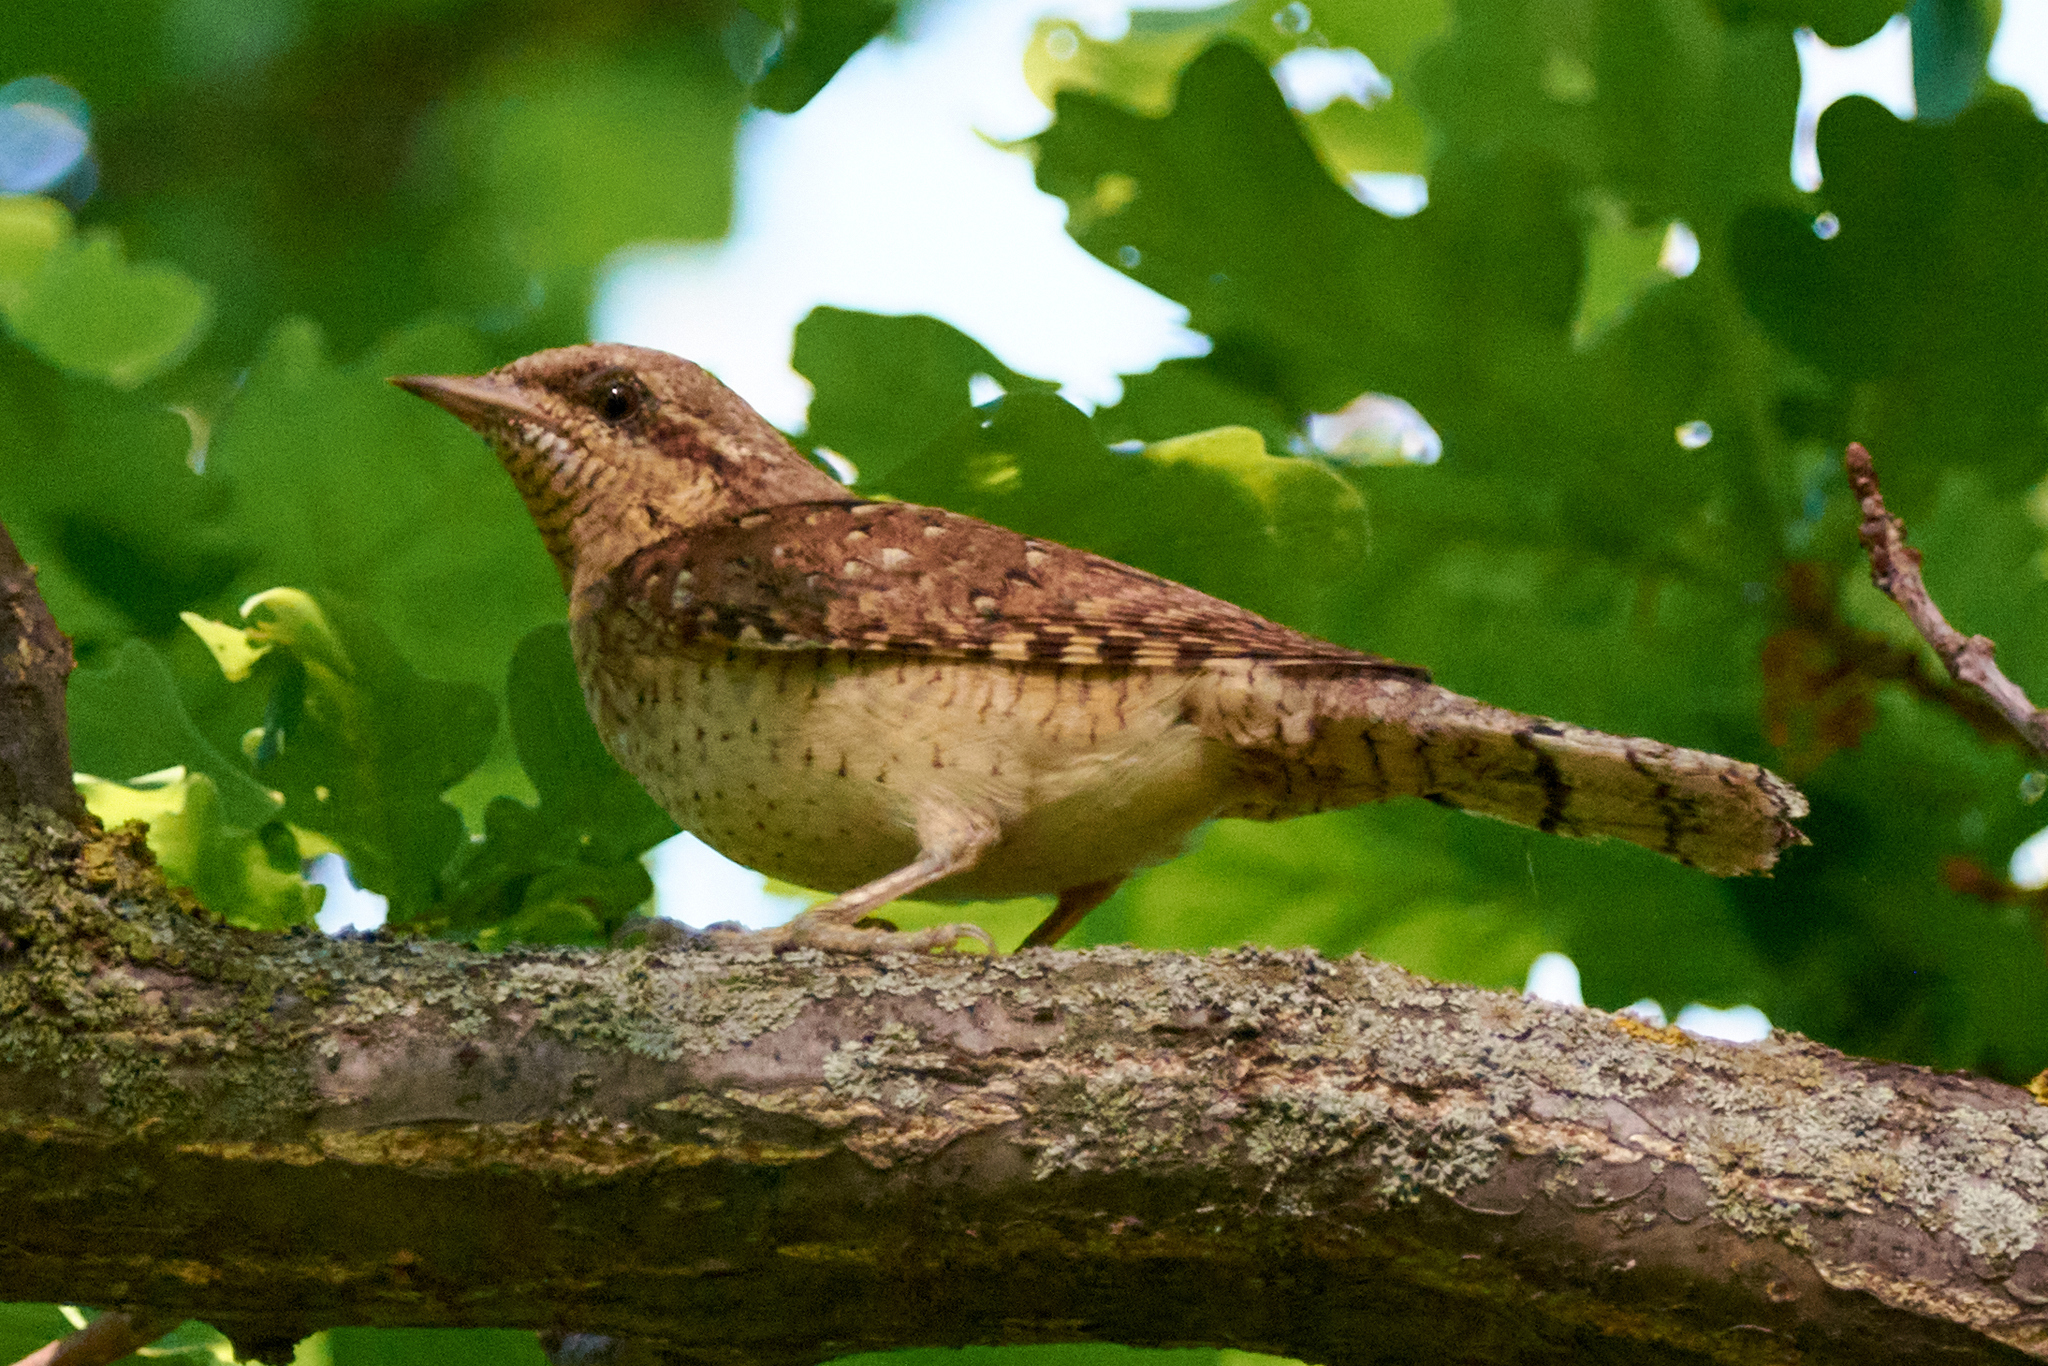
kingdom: Animalia
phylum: Chordata
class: Aves
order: Piciformes
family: Picidae
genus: Jynx
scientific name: Jynx torquilla
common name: Eurasian wryneck
